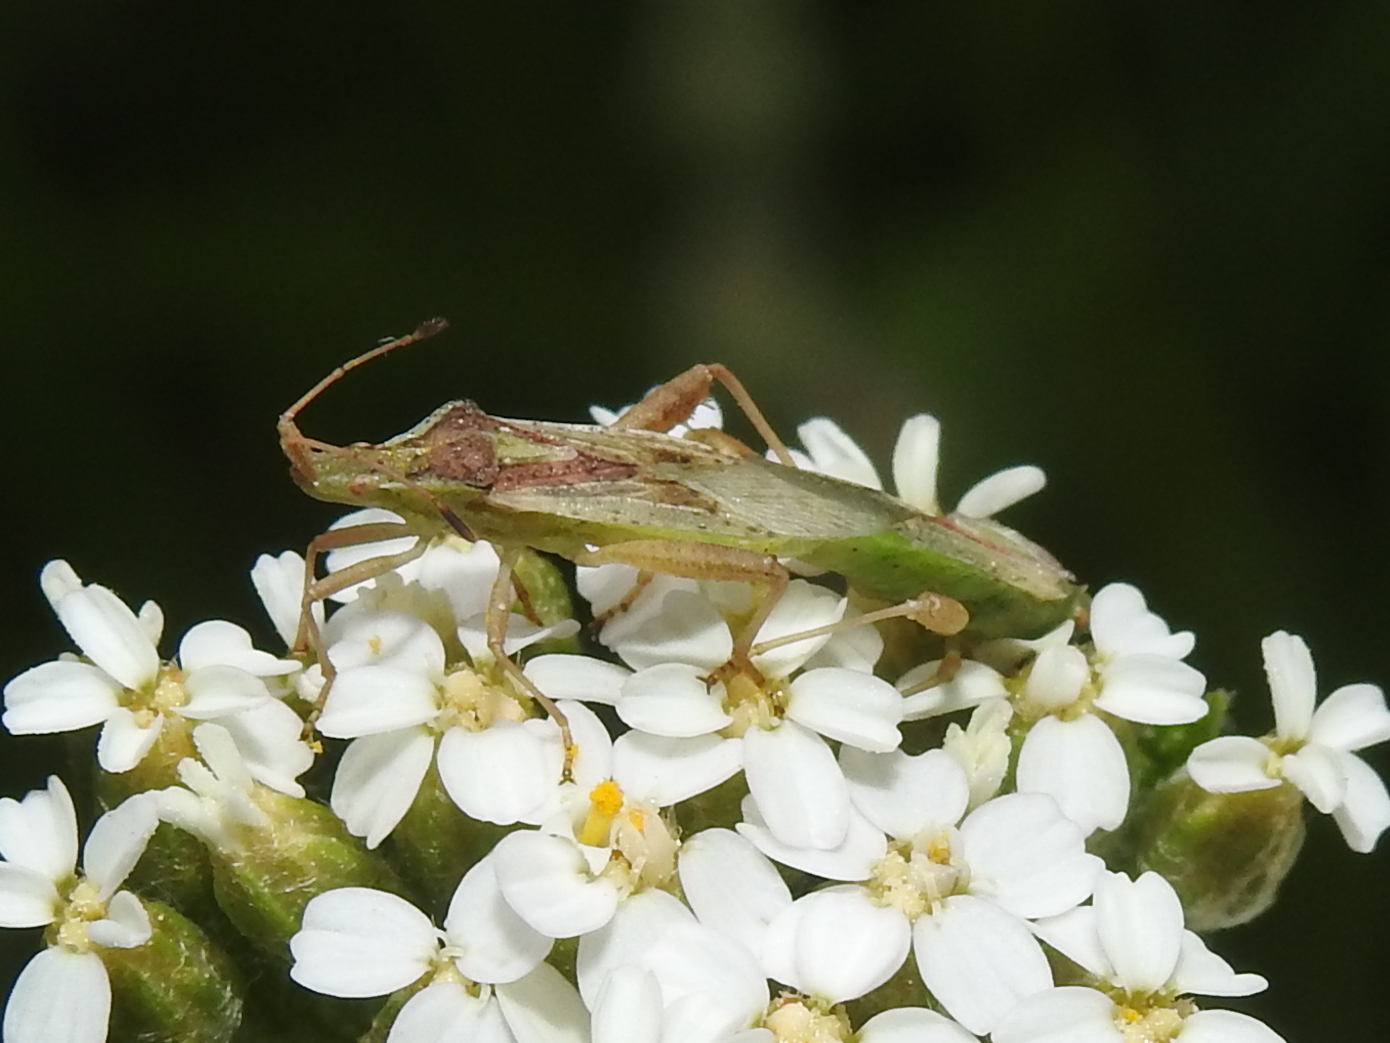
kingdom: Animalia
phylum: Arthropoda
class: Insecta
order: Hemiptera
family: Rhopalidae
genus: Harmostes
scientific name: Harmostes reflexulus
